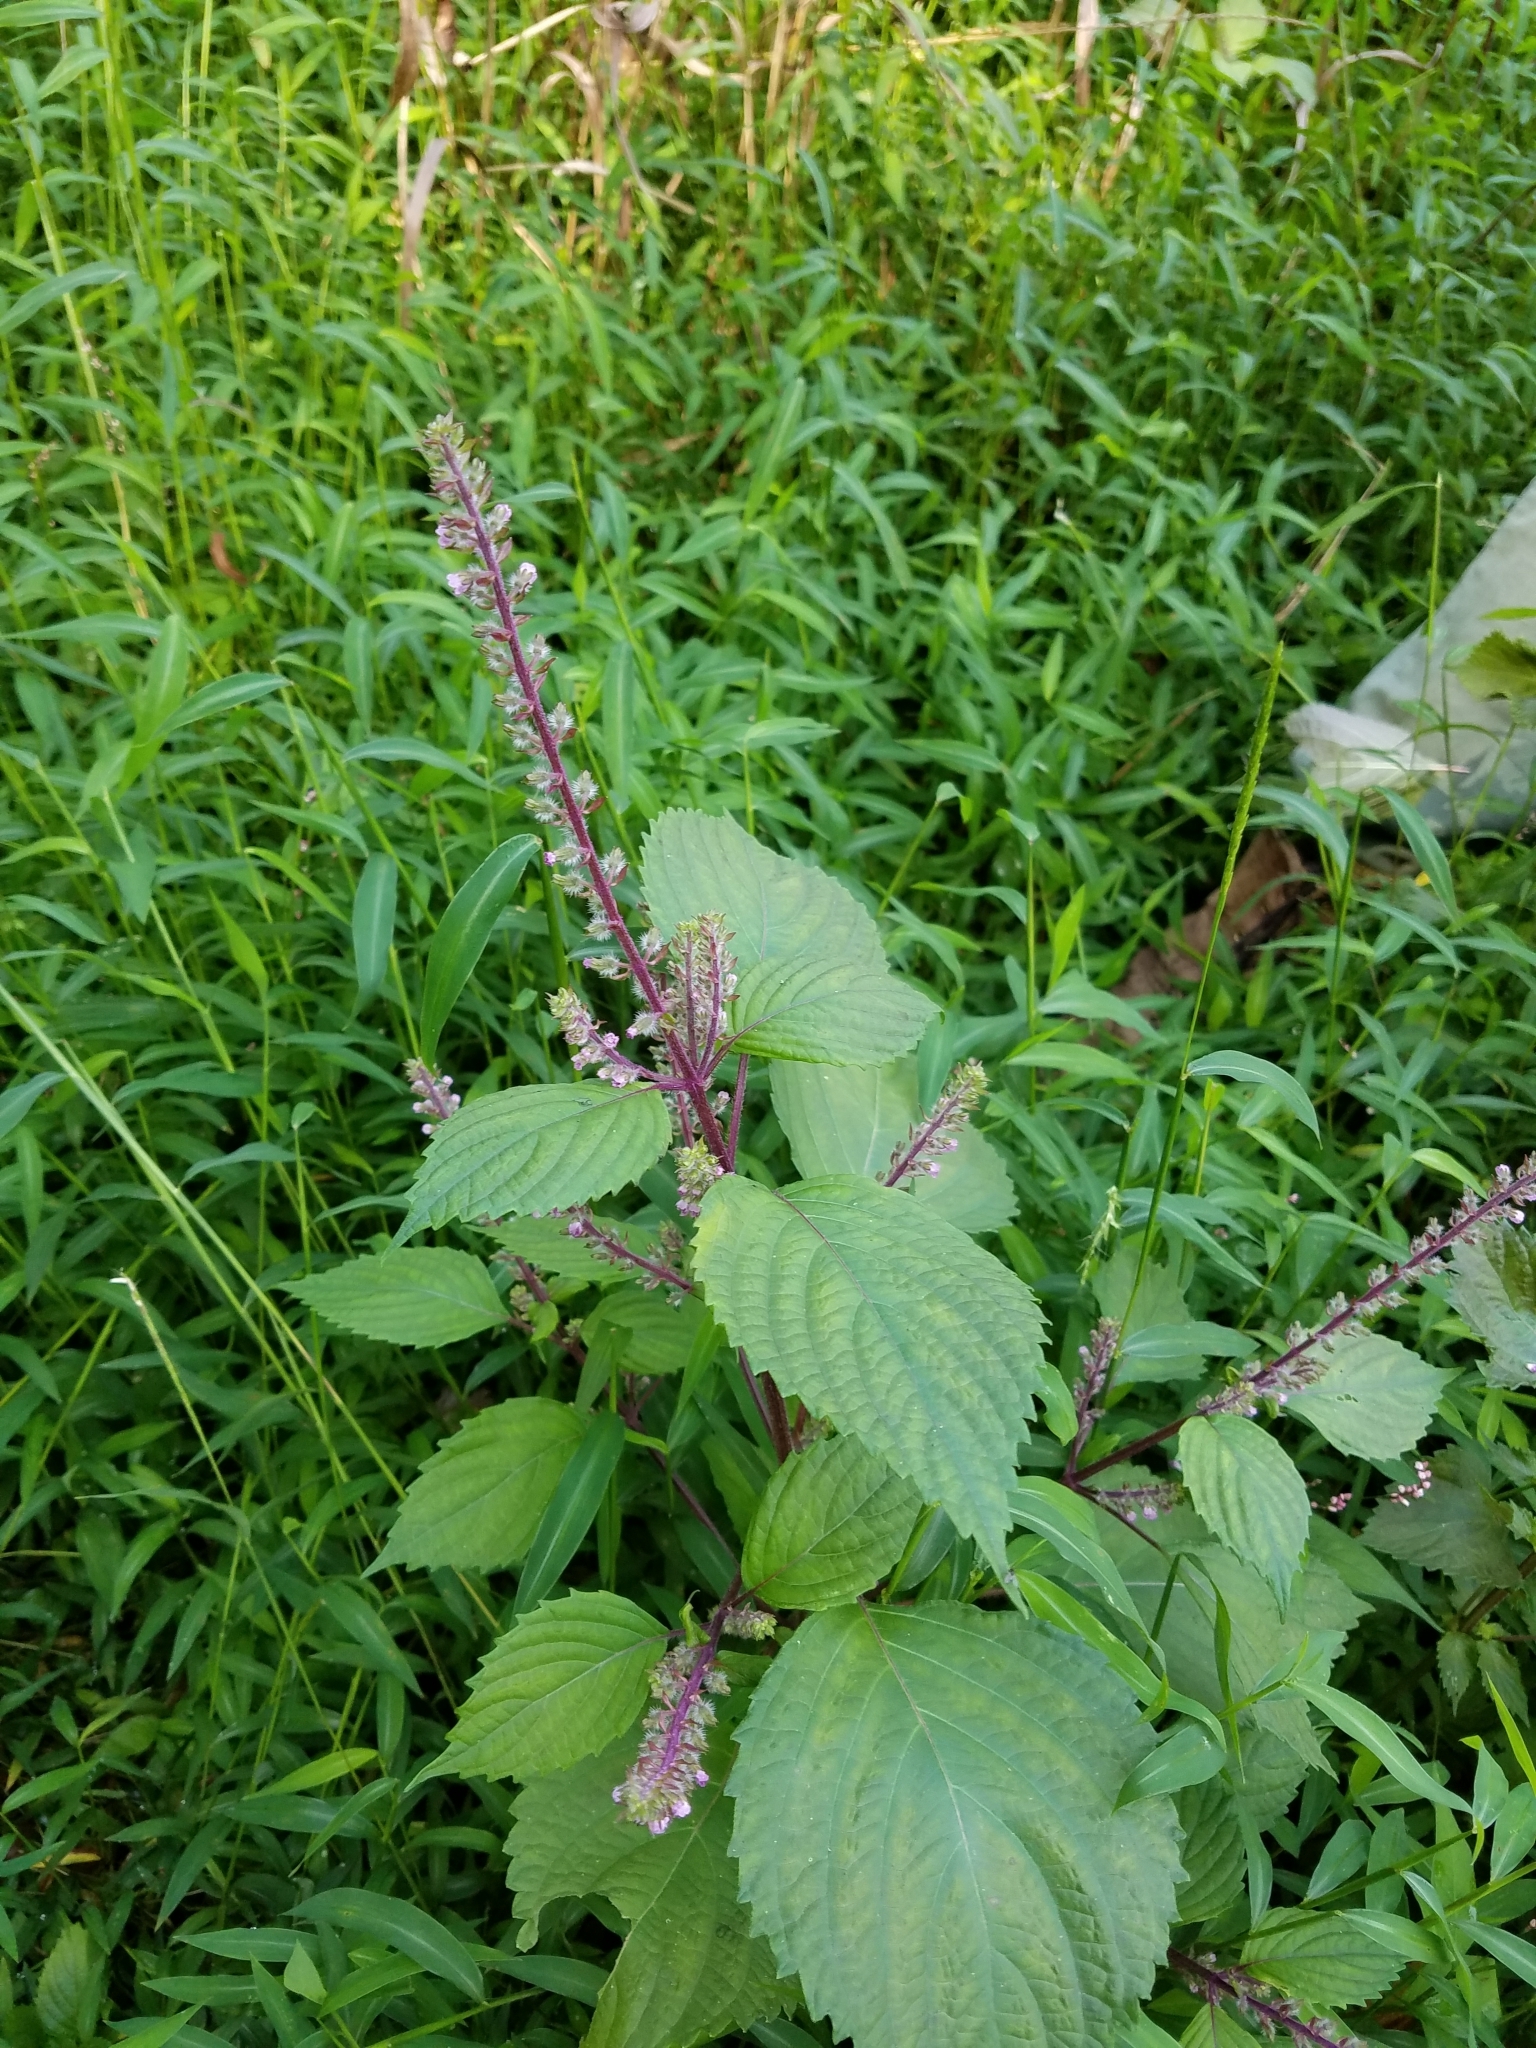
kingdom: Plantae
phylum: Tracheophyta
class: Magnoliopsida
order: Lamiales
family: Lamiaceae
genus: Perilla
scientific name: Perilla frutescens
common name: Perilla
